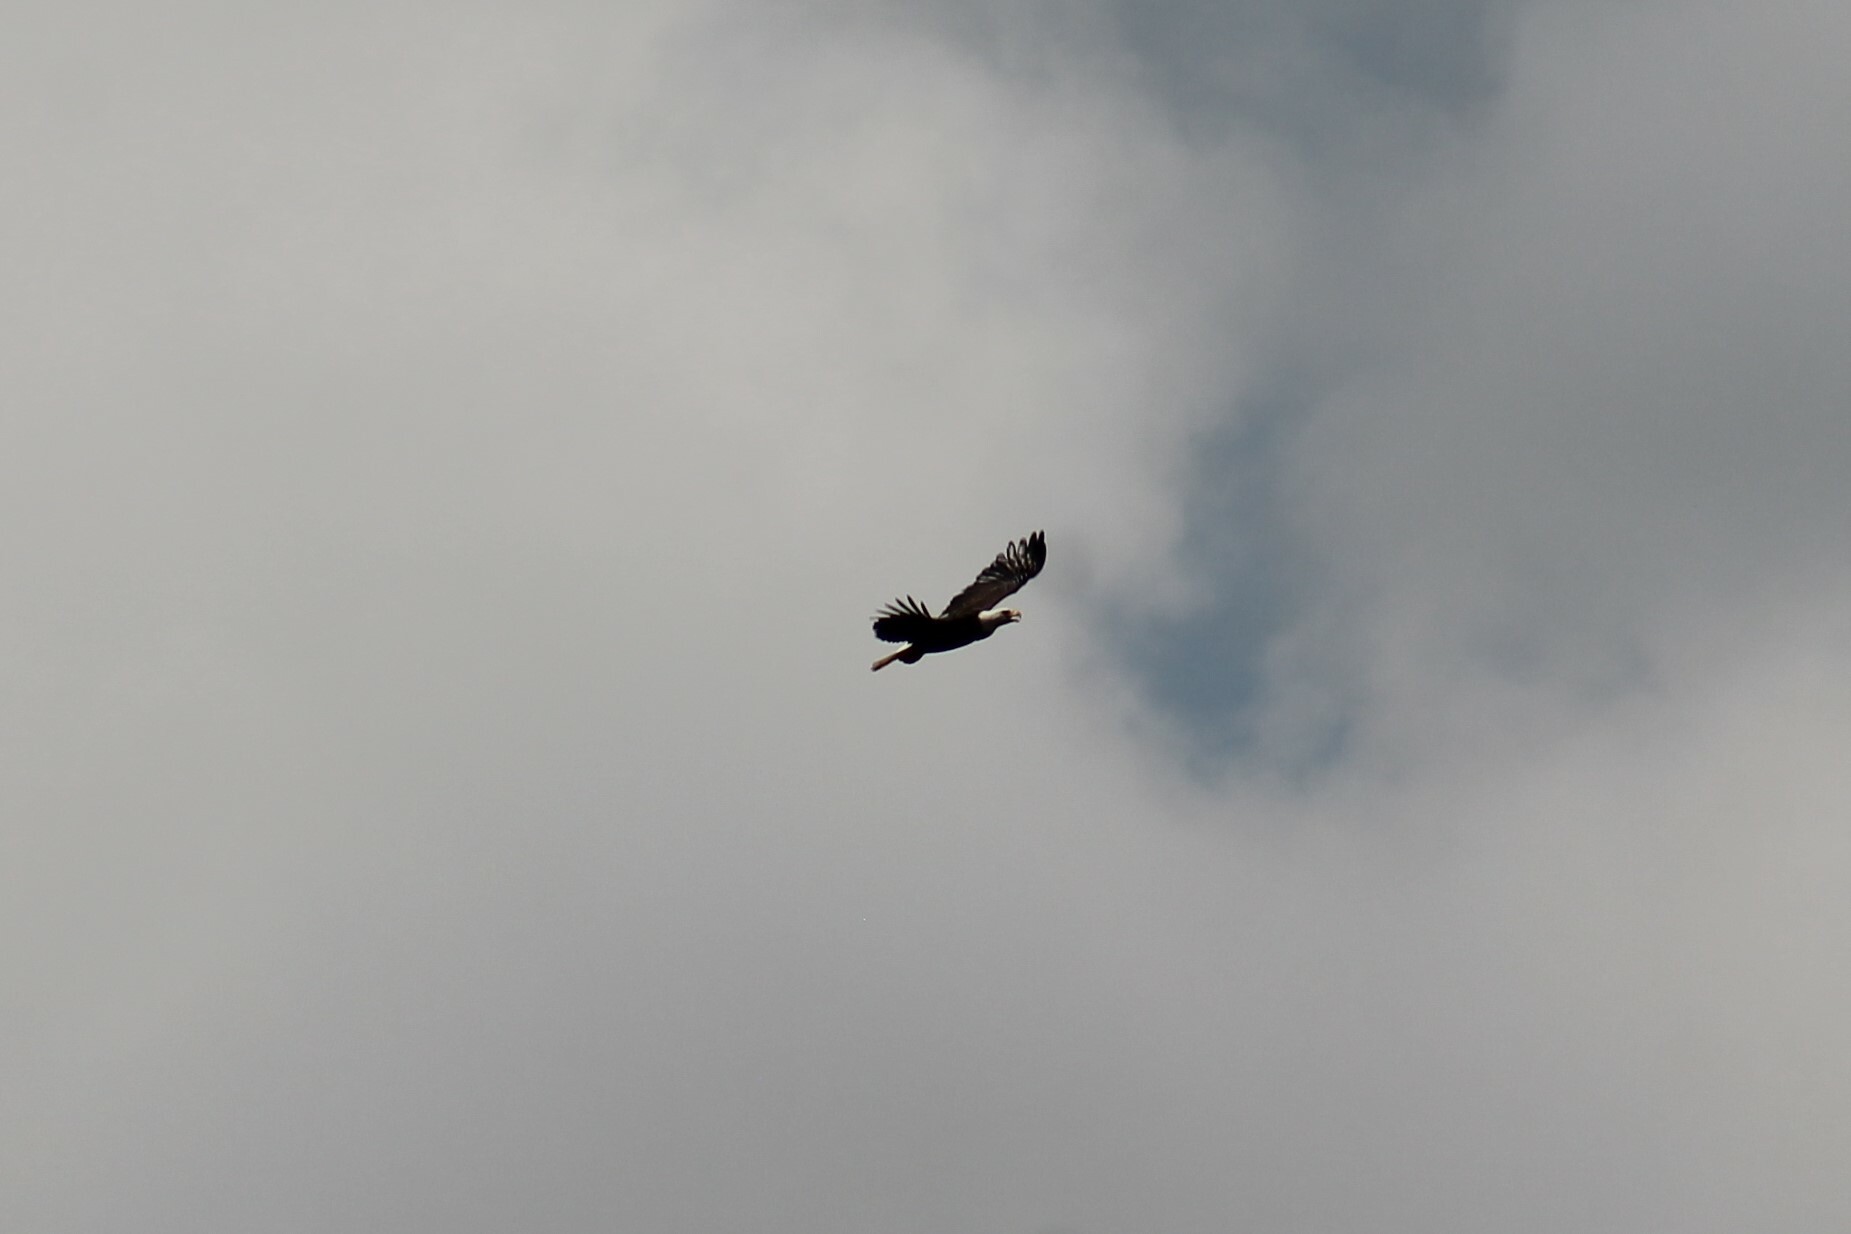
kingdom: Animalia
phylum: Chordata
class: Aves
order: Accipitriformes
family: Accipitridae
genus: Haliaeetus
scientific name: Haliaeetus leucocephalus
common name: Bald eagle
